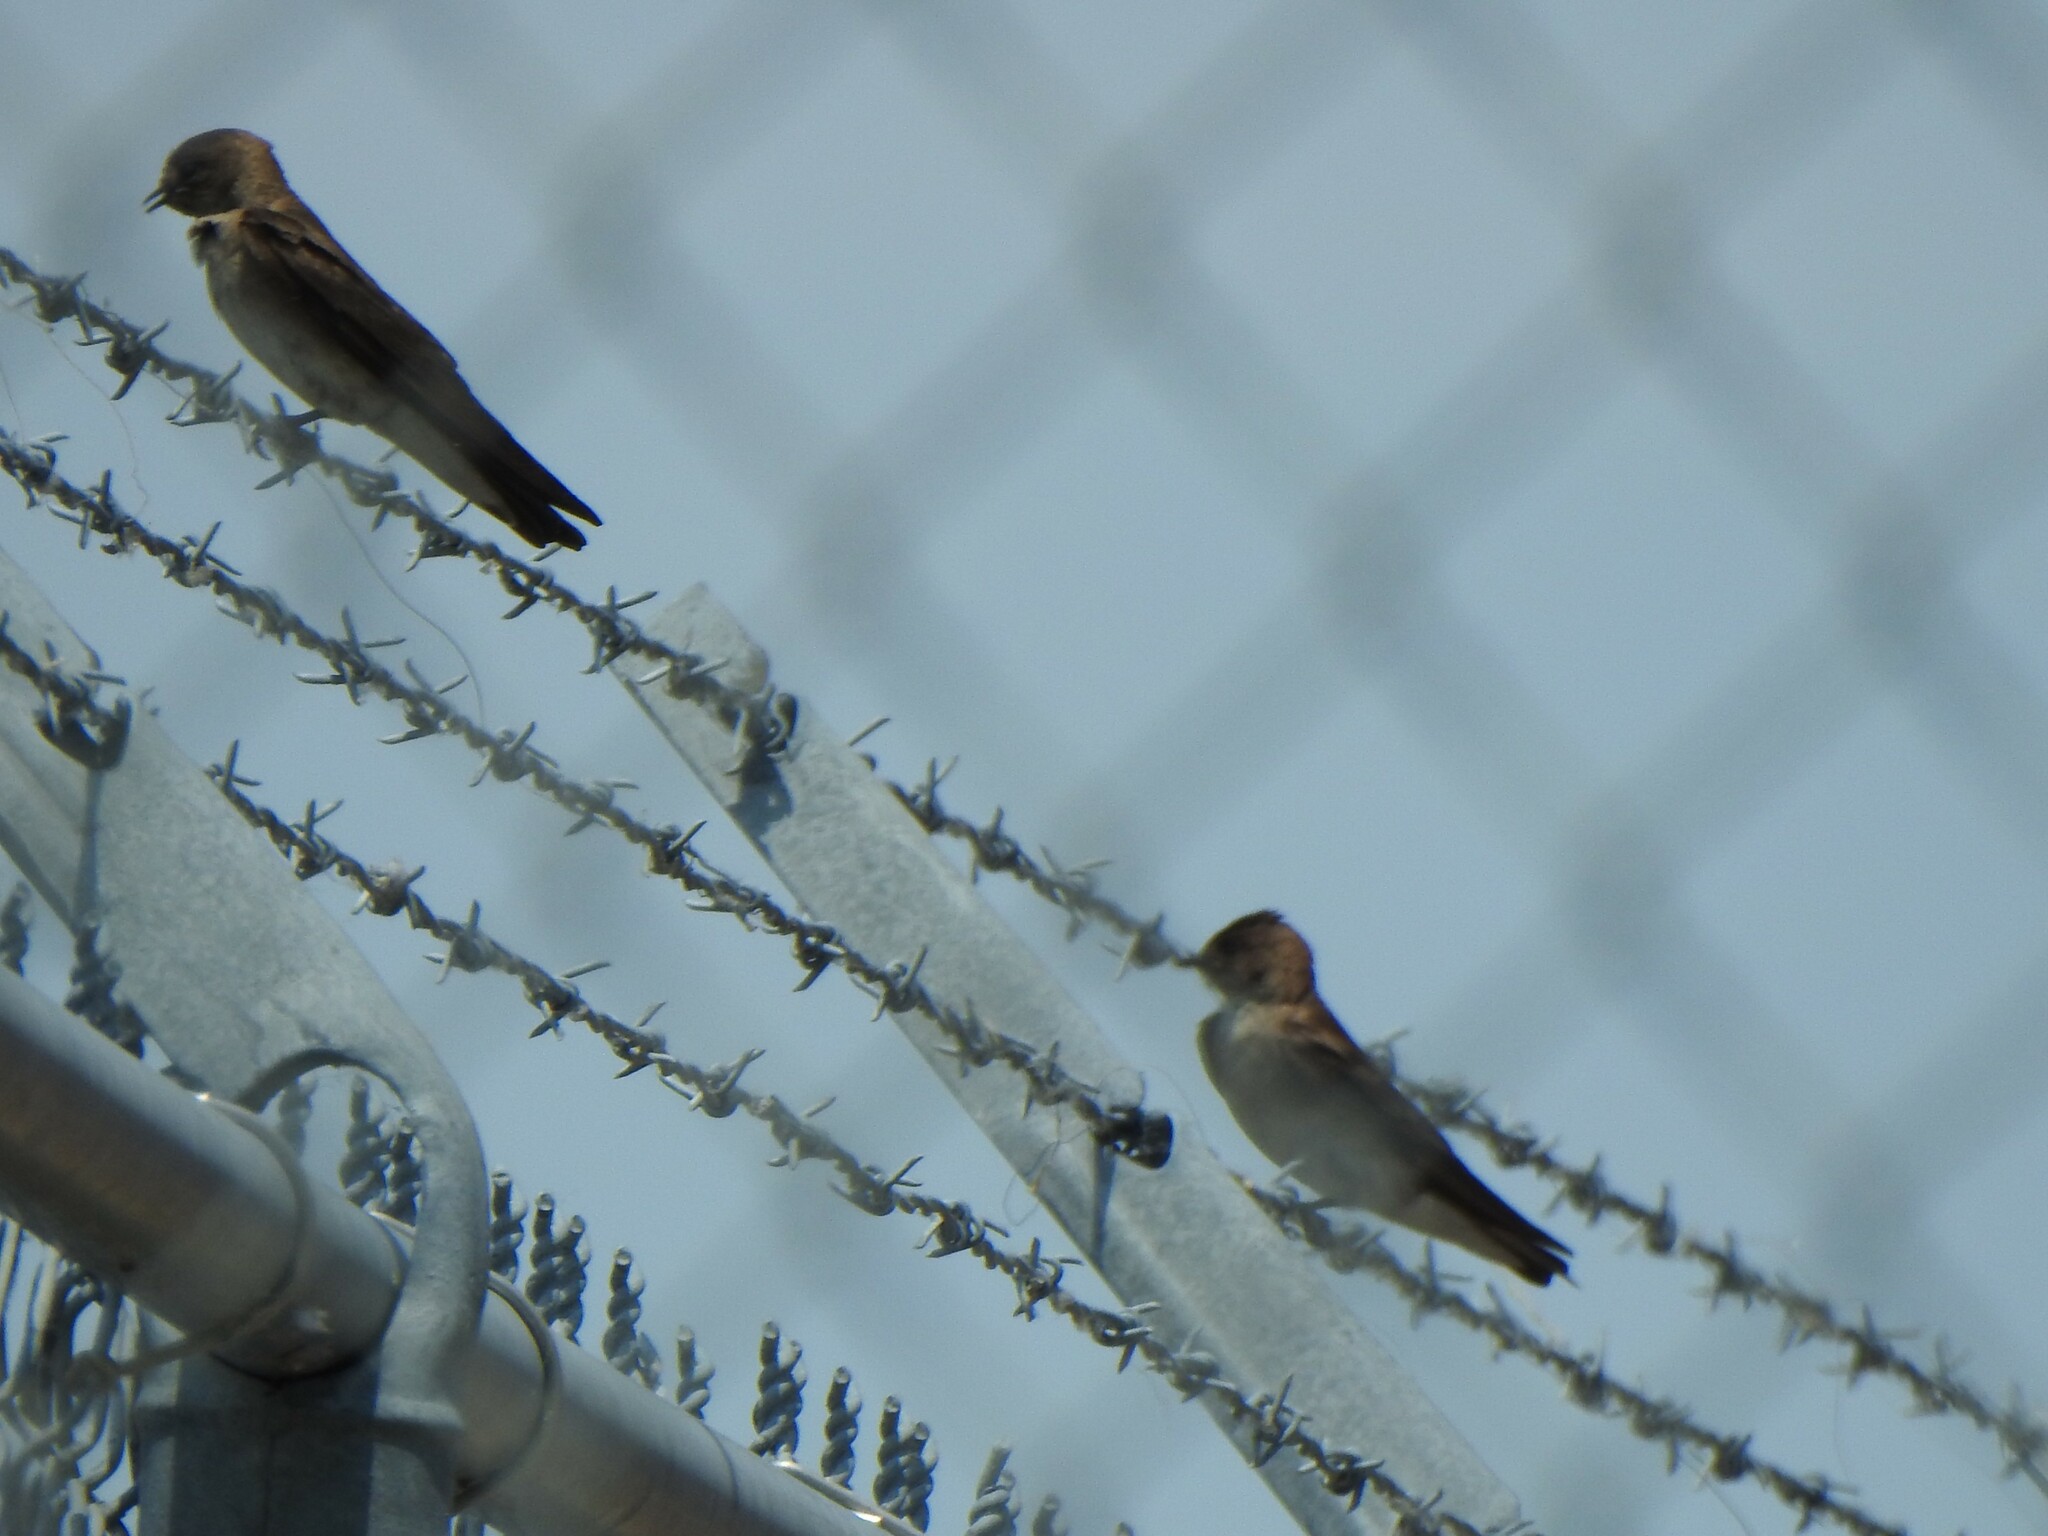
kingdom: Animalia
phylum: Chordata
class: Aves
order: Passeriformes
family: Hirundinidae
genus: Stelgidopteryx
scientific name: Stelgidopteryx serripennis
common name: Northern rough-winged swallow
